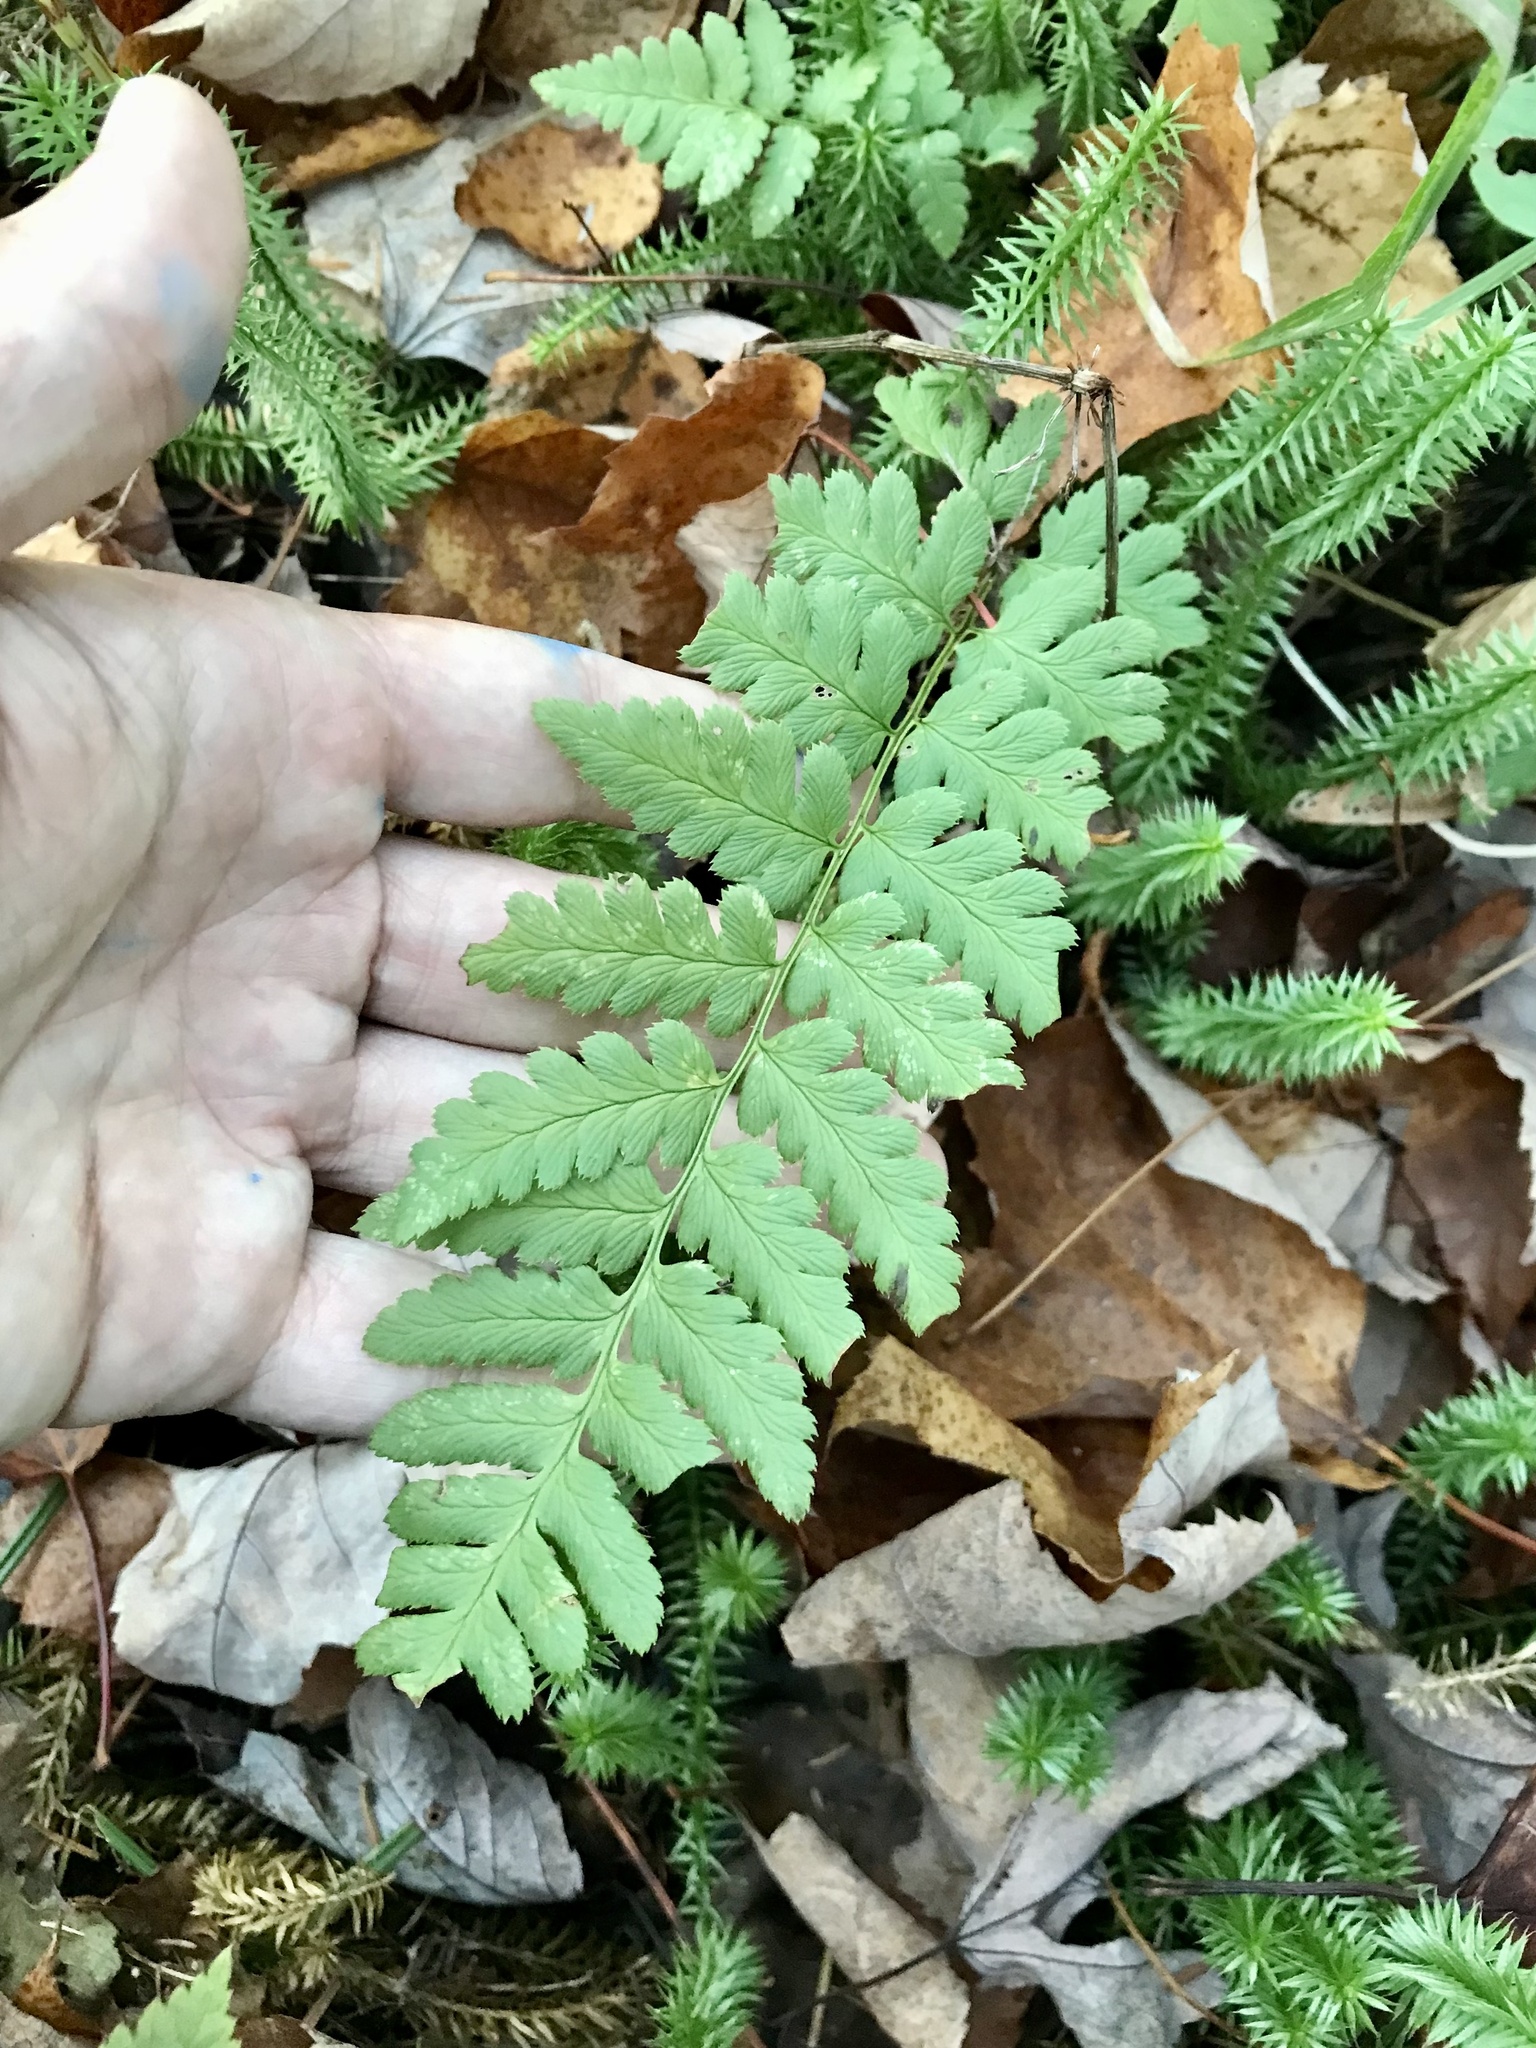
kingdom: Plantae
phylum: Tracheophyta
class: Polypodiopsida
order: Polypodiales
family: Dryopteridaceae
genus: Dryopteris
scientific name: Dryopteris cristata
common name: Crested wood fern
